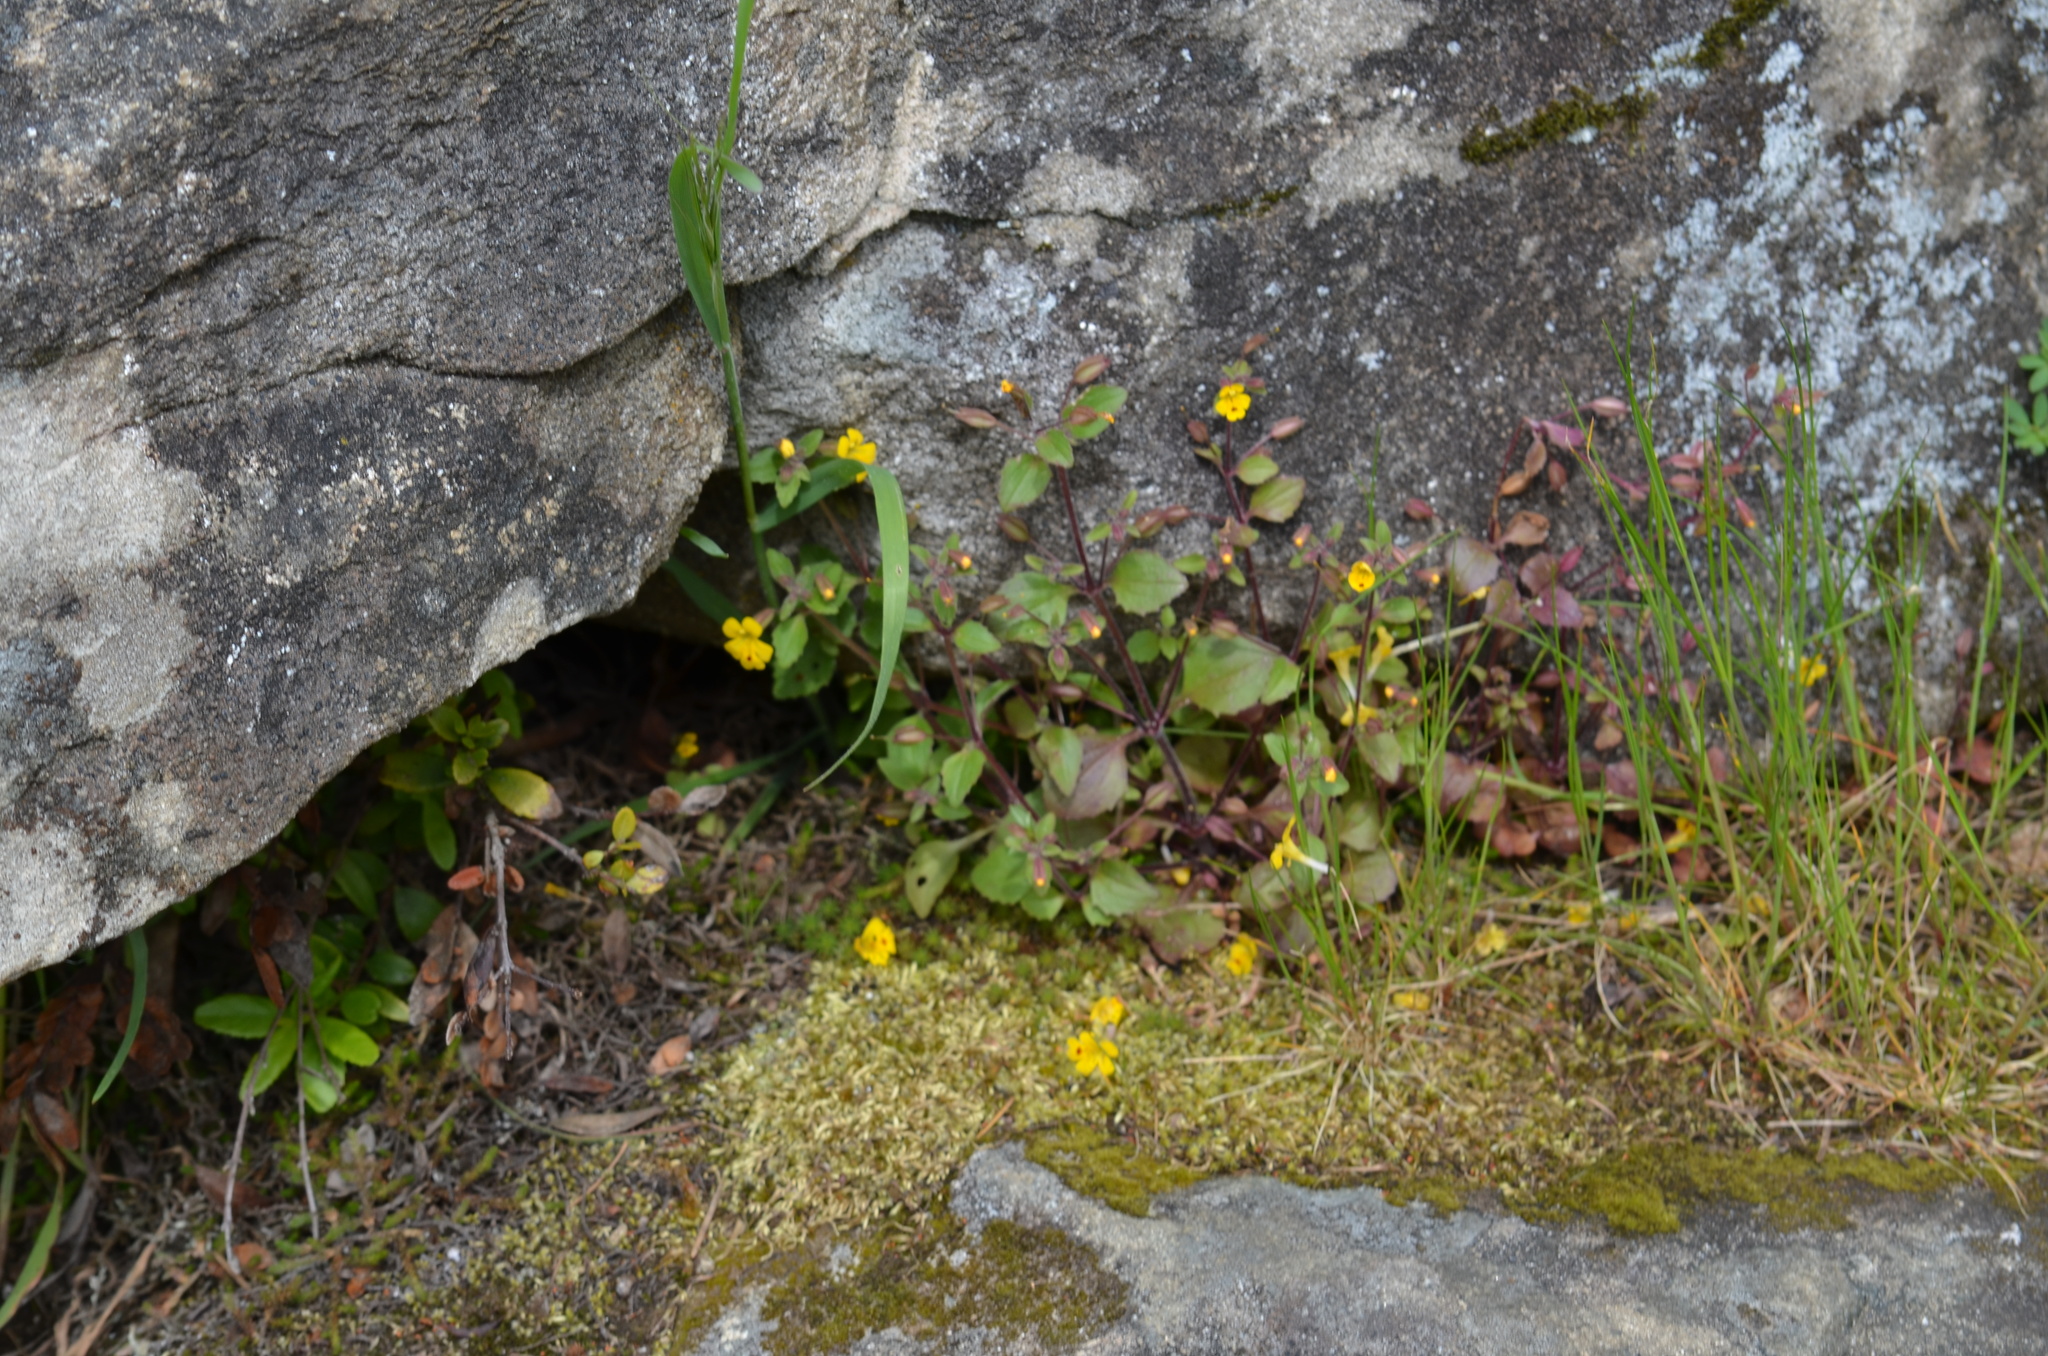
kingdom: Plantae
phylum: Tracheophyta
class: Magnoliopsida
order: Lamiales
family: Phrymaceae
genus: Erythranthe
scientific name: Erythranthe alsinoides
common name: Chickweed monkeyflower
